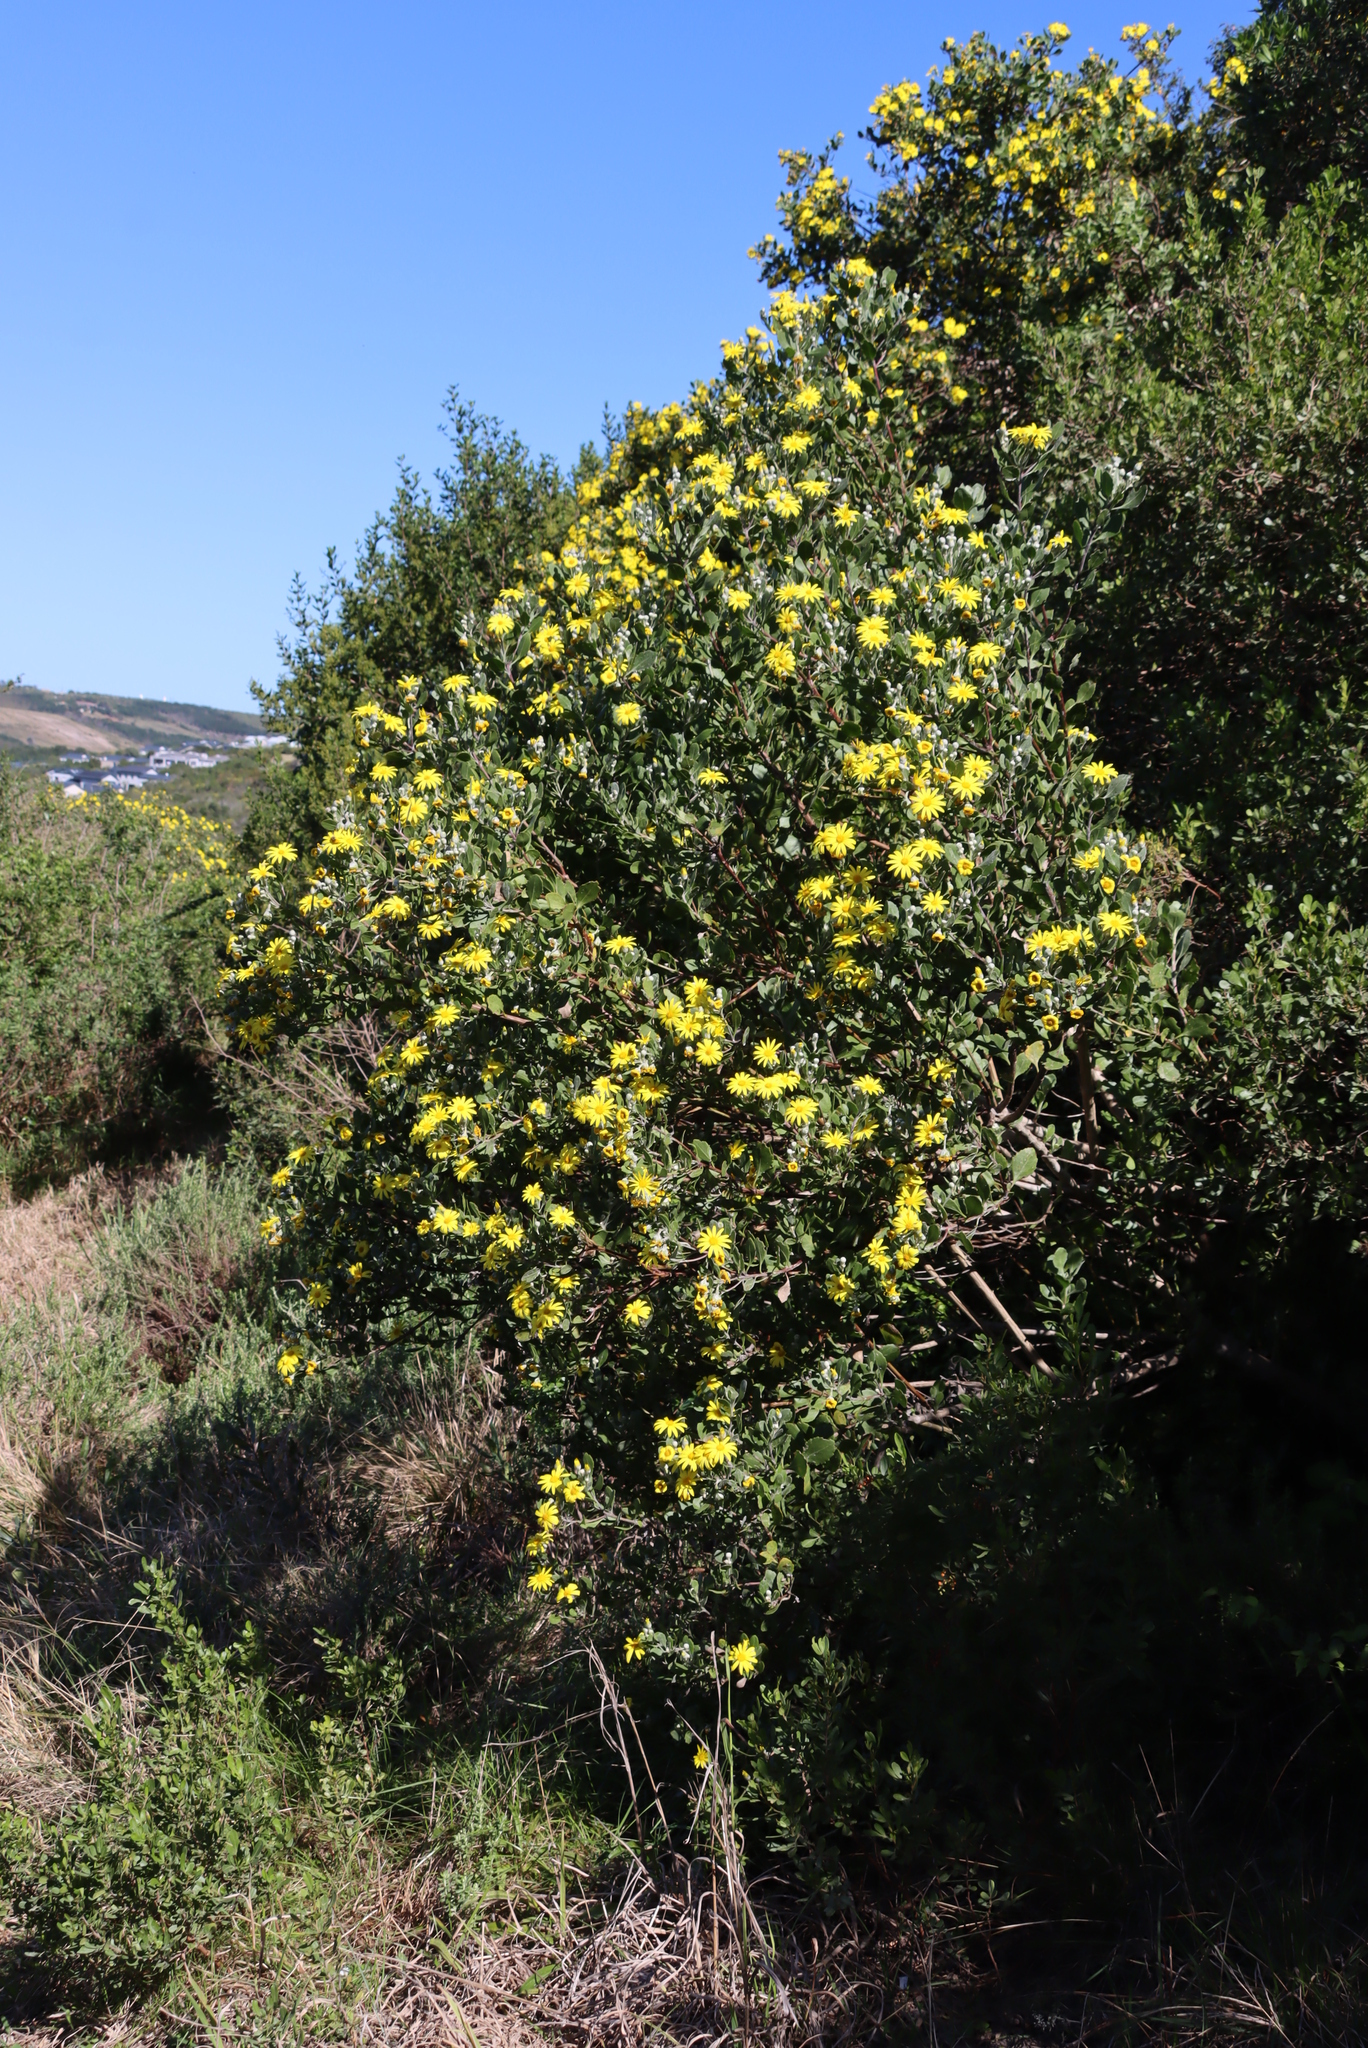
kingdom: Plantae
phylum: Tracheophyta
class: Magnoliopsida
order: Asterales
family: Asteraceae
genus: Osteospermum
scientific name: Osteospermum moniliferum
